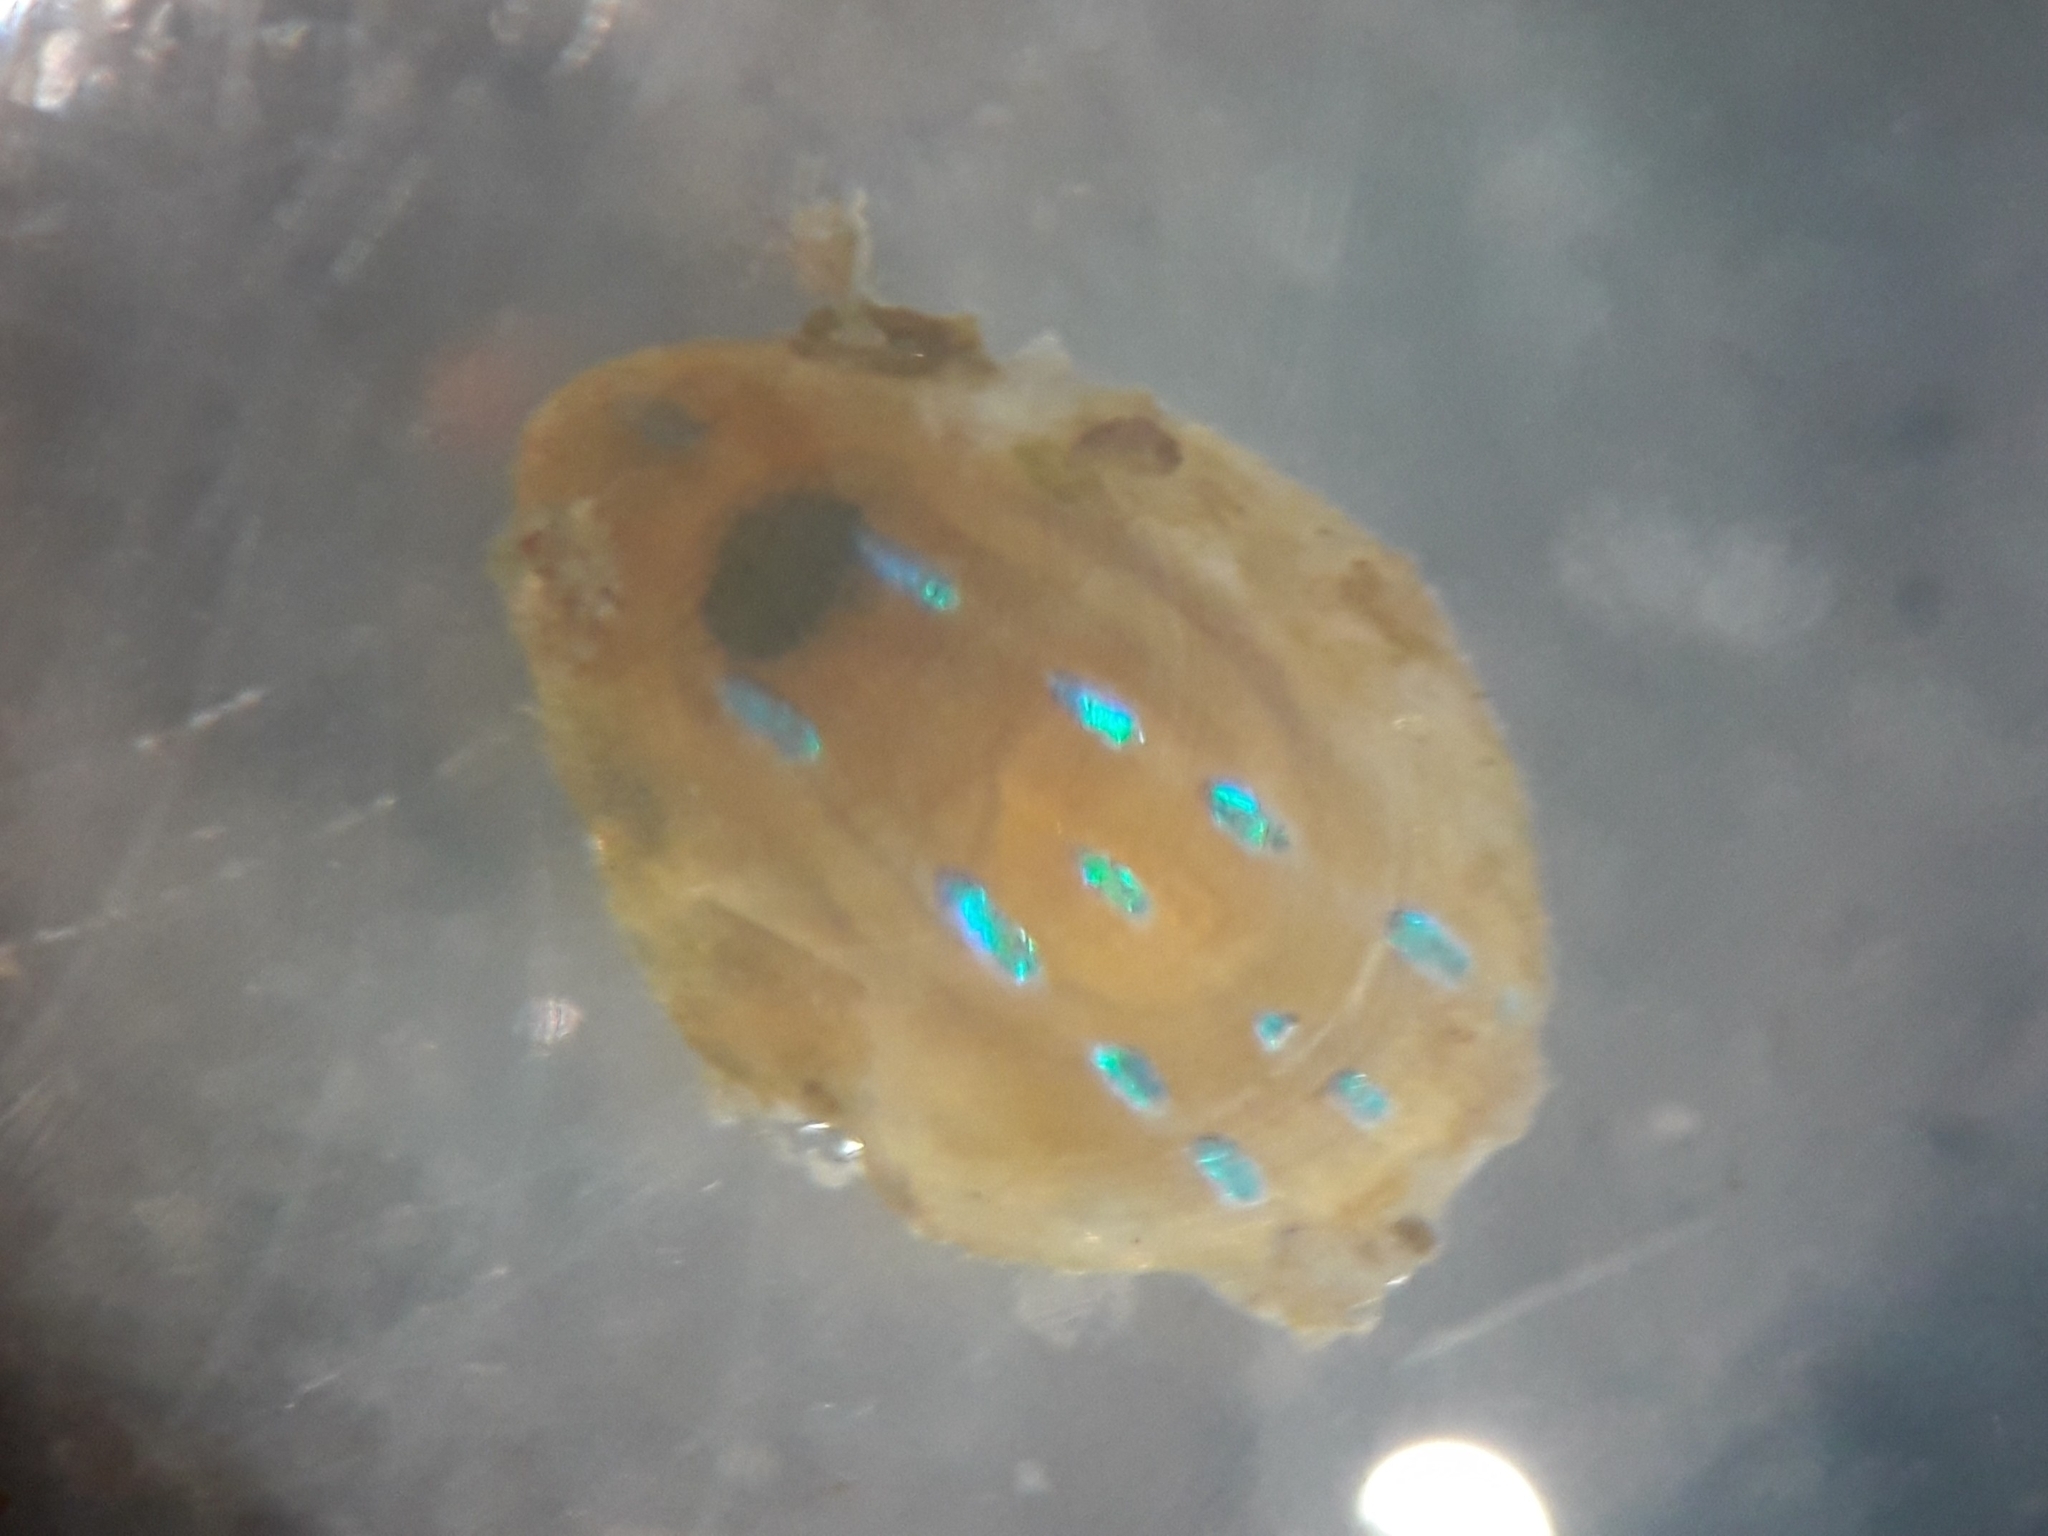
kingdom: Animalia
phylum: Mollusca
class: Gastropoda
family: Patellidae
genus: Patella
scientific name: Patella pellucida
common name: Blue-rayed limpet
